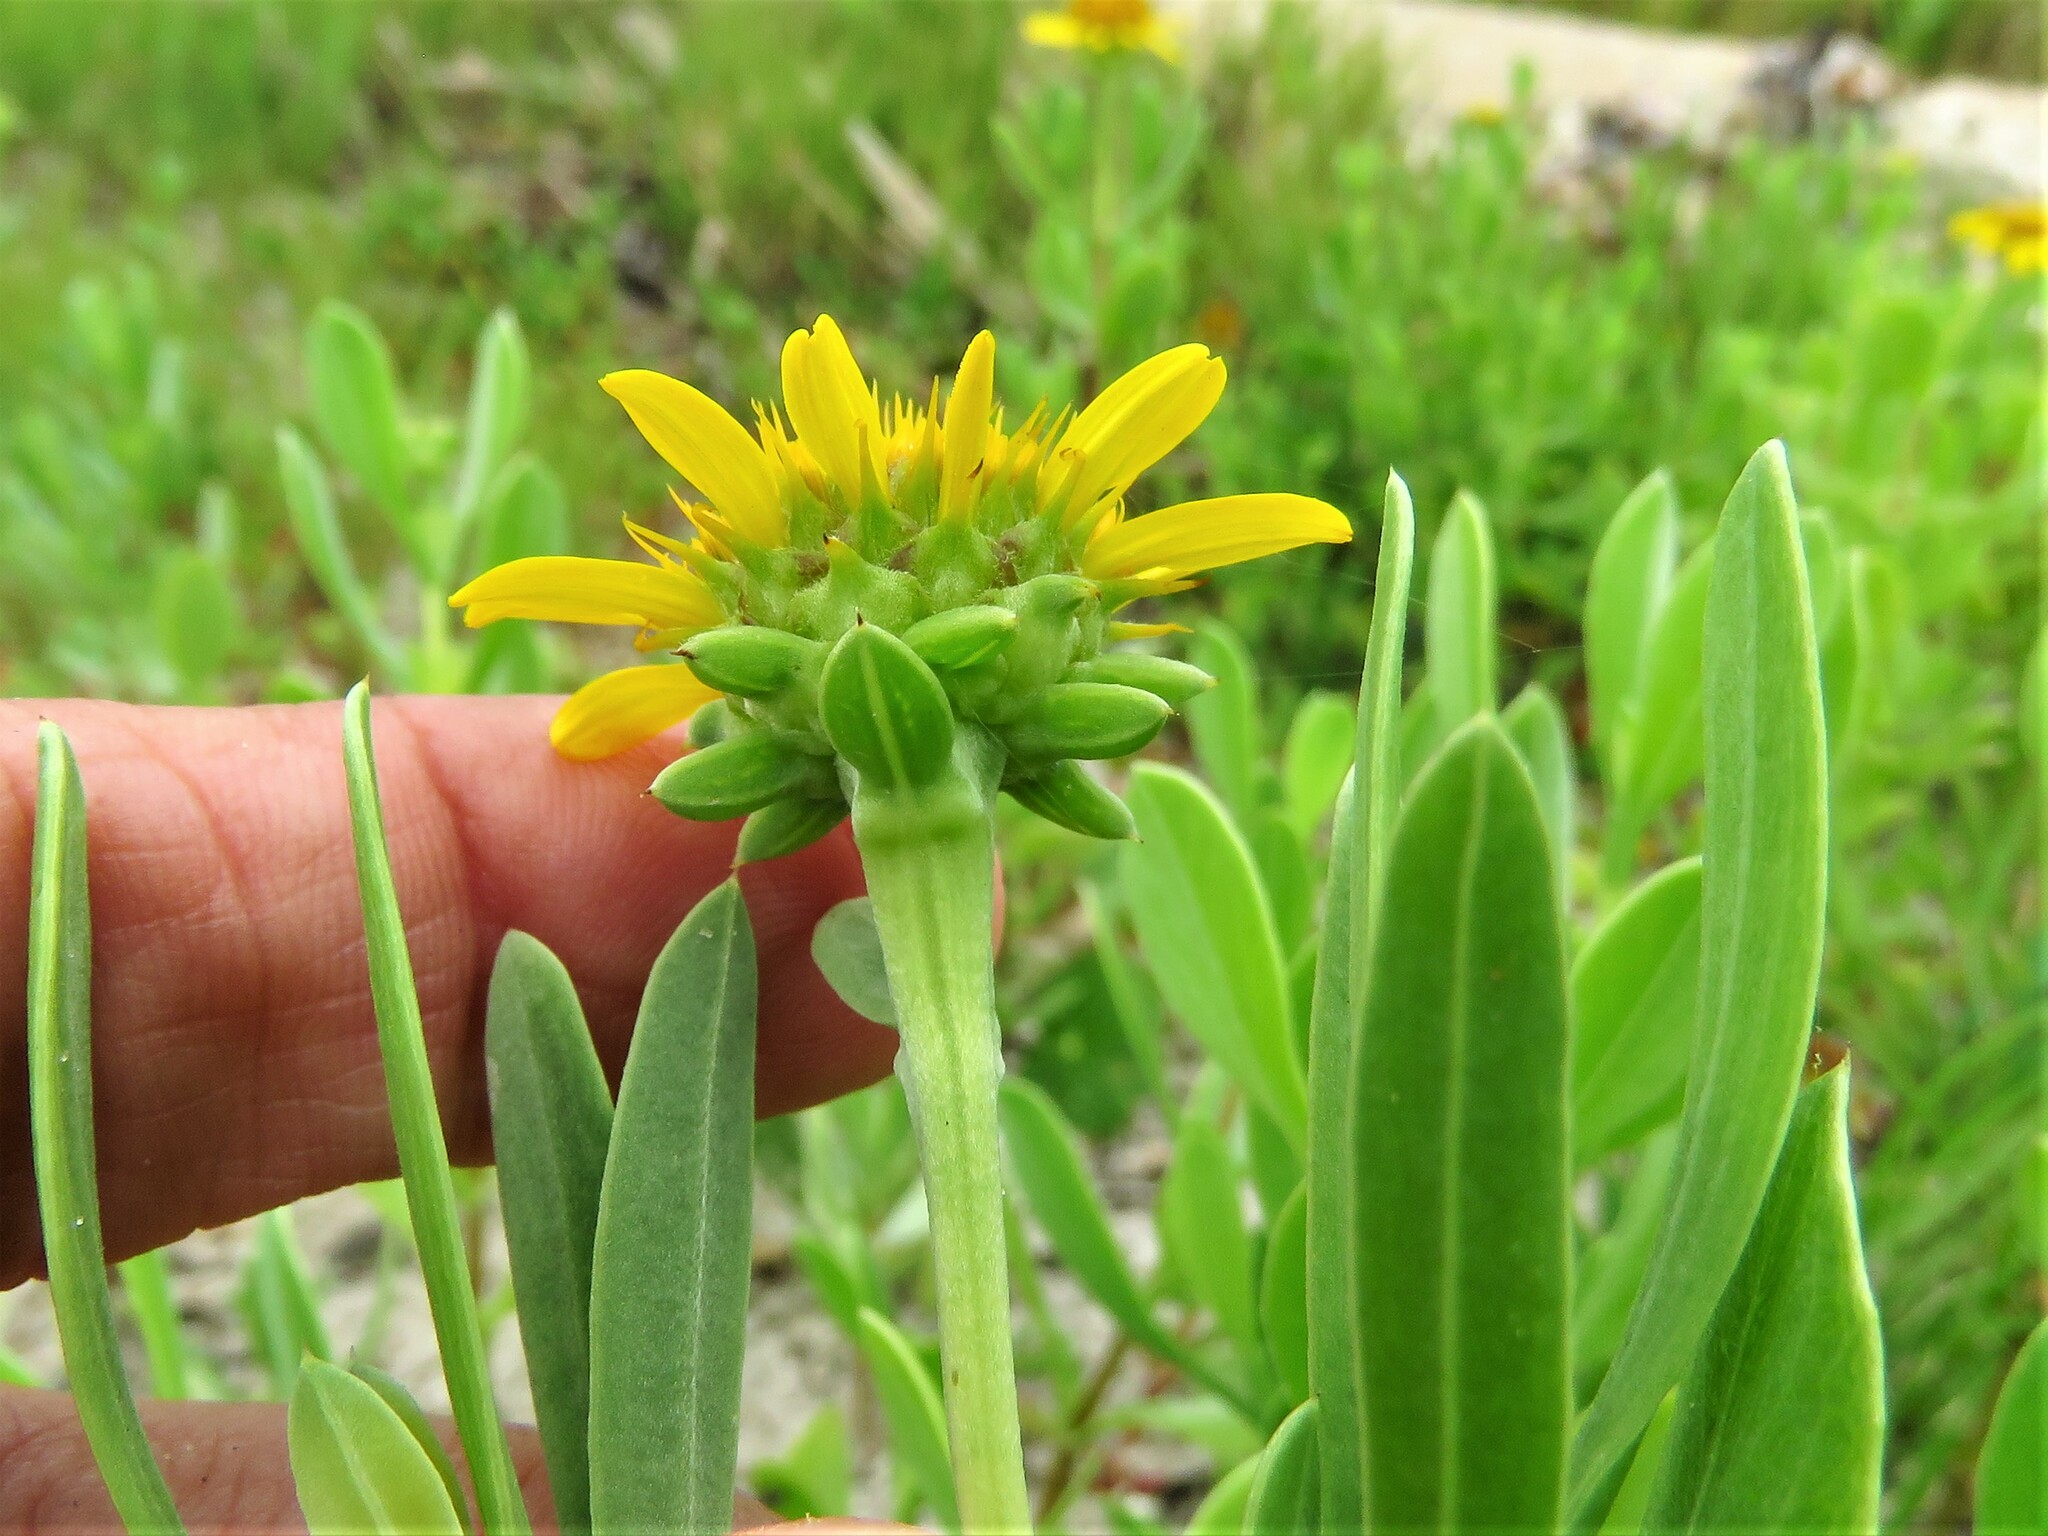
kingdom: Plantae
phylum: Tracheophyta
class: Magnoliopsida
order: Asterales
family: Asteraceae
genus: Borrichia
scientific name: Borrichia frutescens
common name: Sea oxeye
